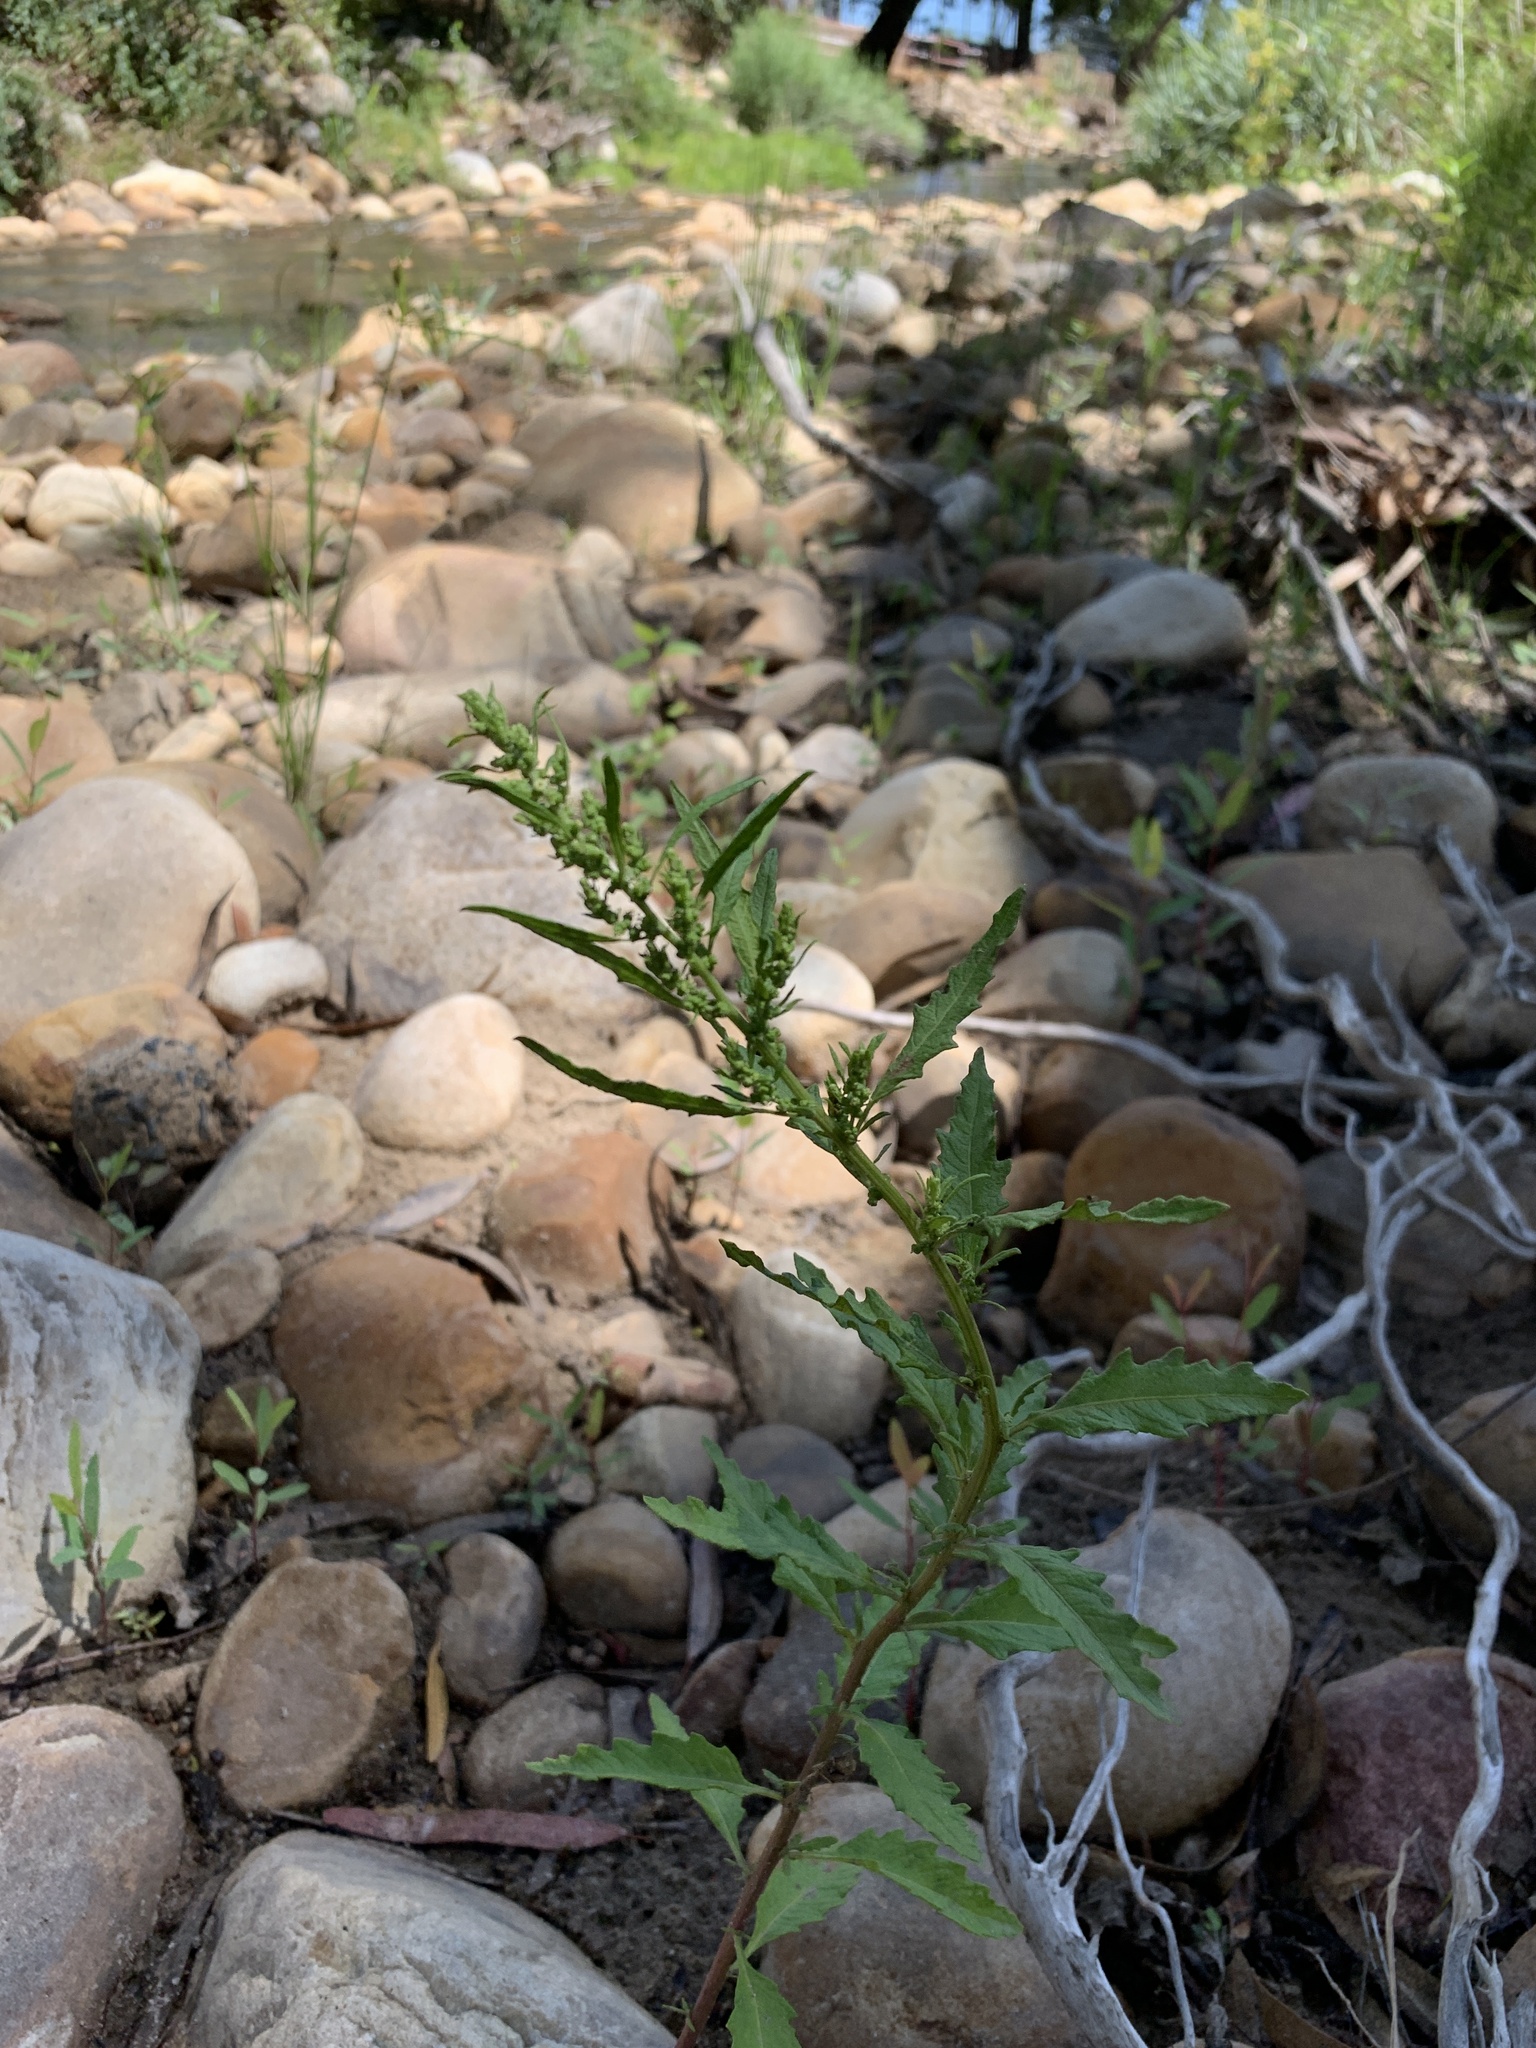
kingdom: Plantae
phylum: Tracheophyta
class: Magnoliopsida
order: Caryophyllales
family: Amaranthaceae
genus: Dysphania
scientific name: Dysphania ambrosioides
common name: Wormseed
